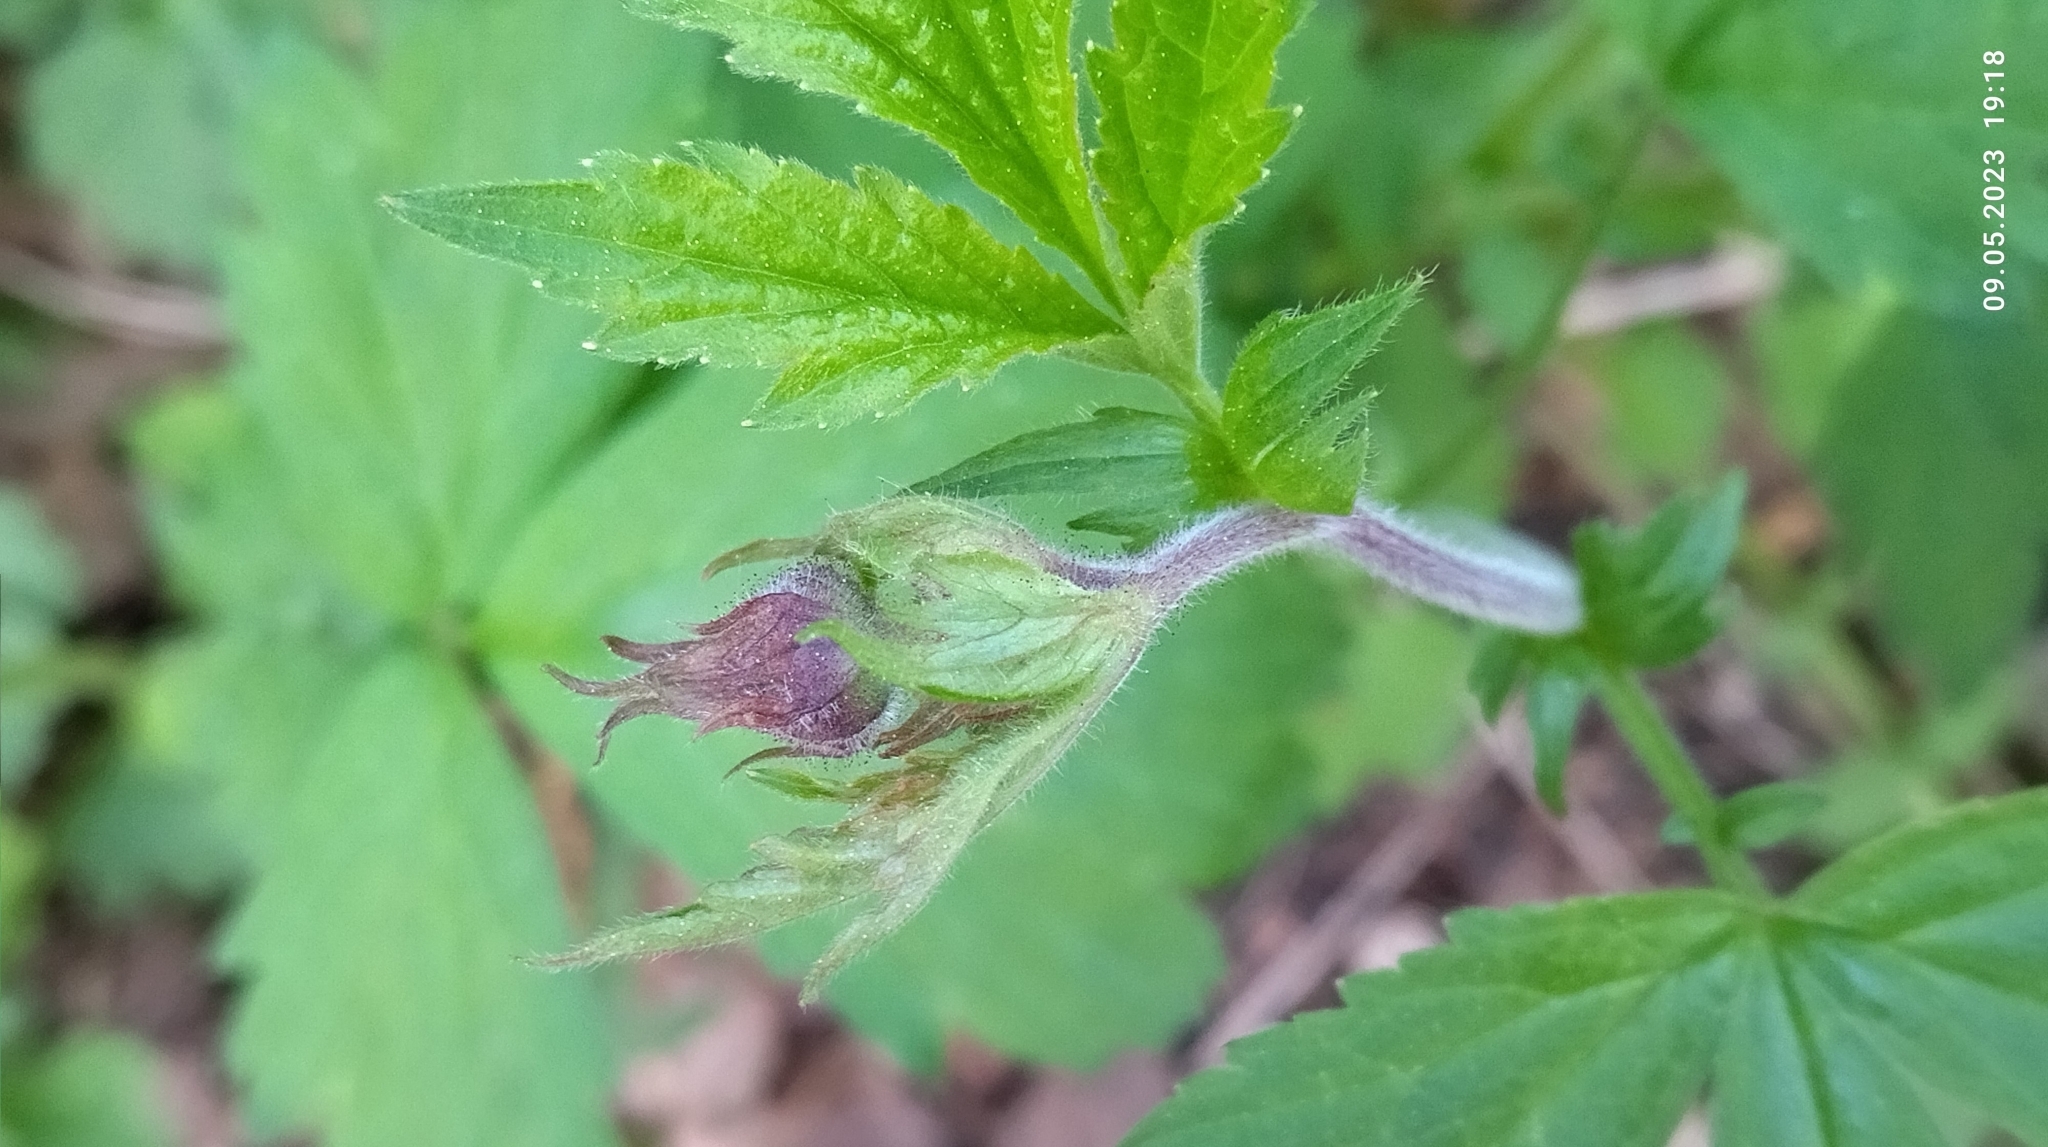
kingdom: Plantae
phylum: Tracheophyta
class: Magnoliopsida
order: Rosales
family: Rosaceae
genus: Geum
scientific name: Geum rivale
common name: Water avens
